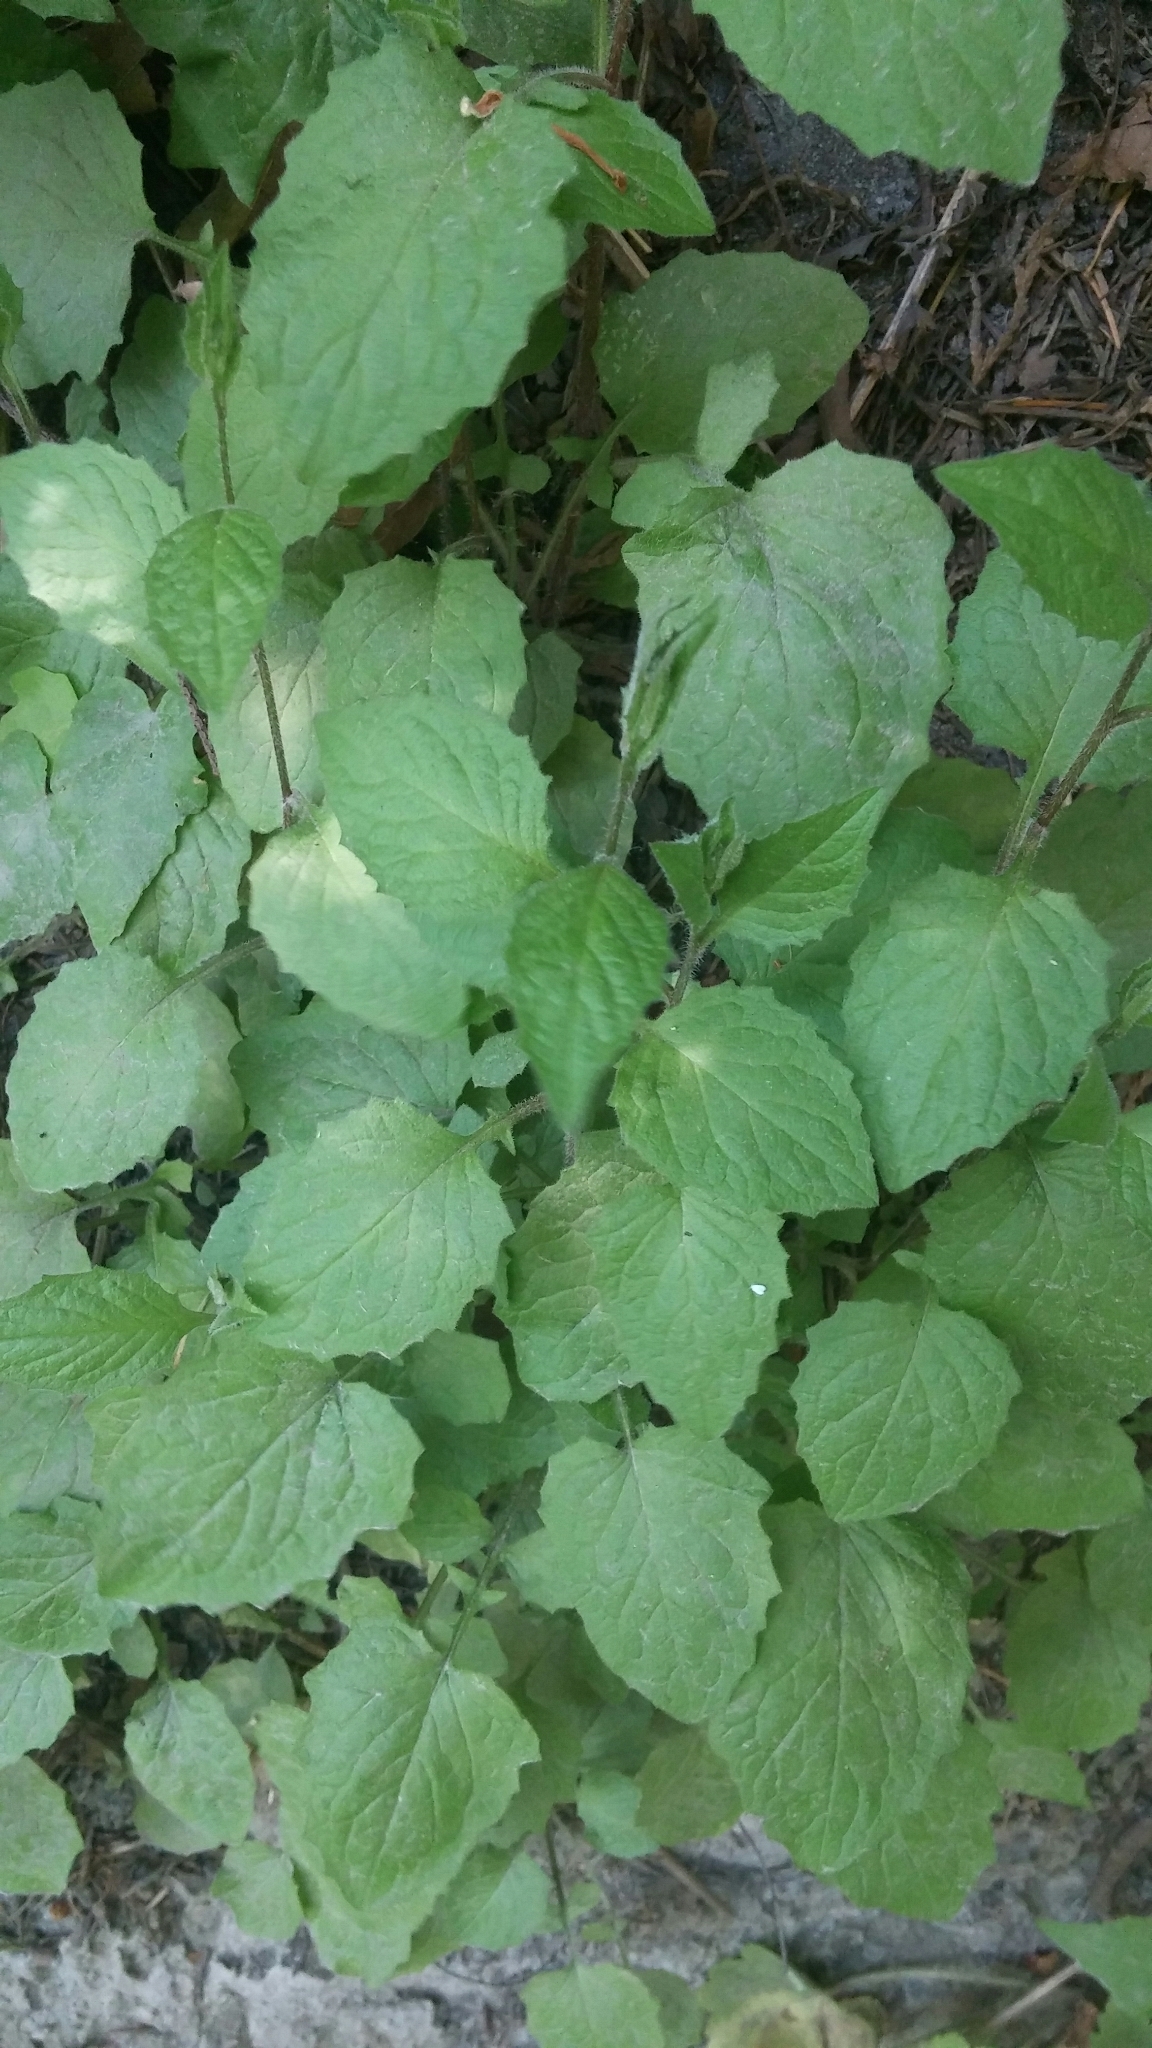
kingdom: Plantae
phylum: Tracheophyta
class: Magnoliopsida
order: Asterales
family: Asteraceae
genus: Lapsana
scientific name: Lapsana communis
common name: Nipplewort
